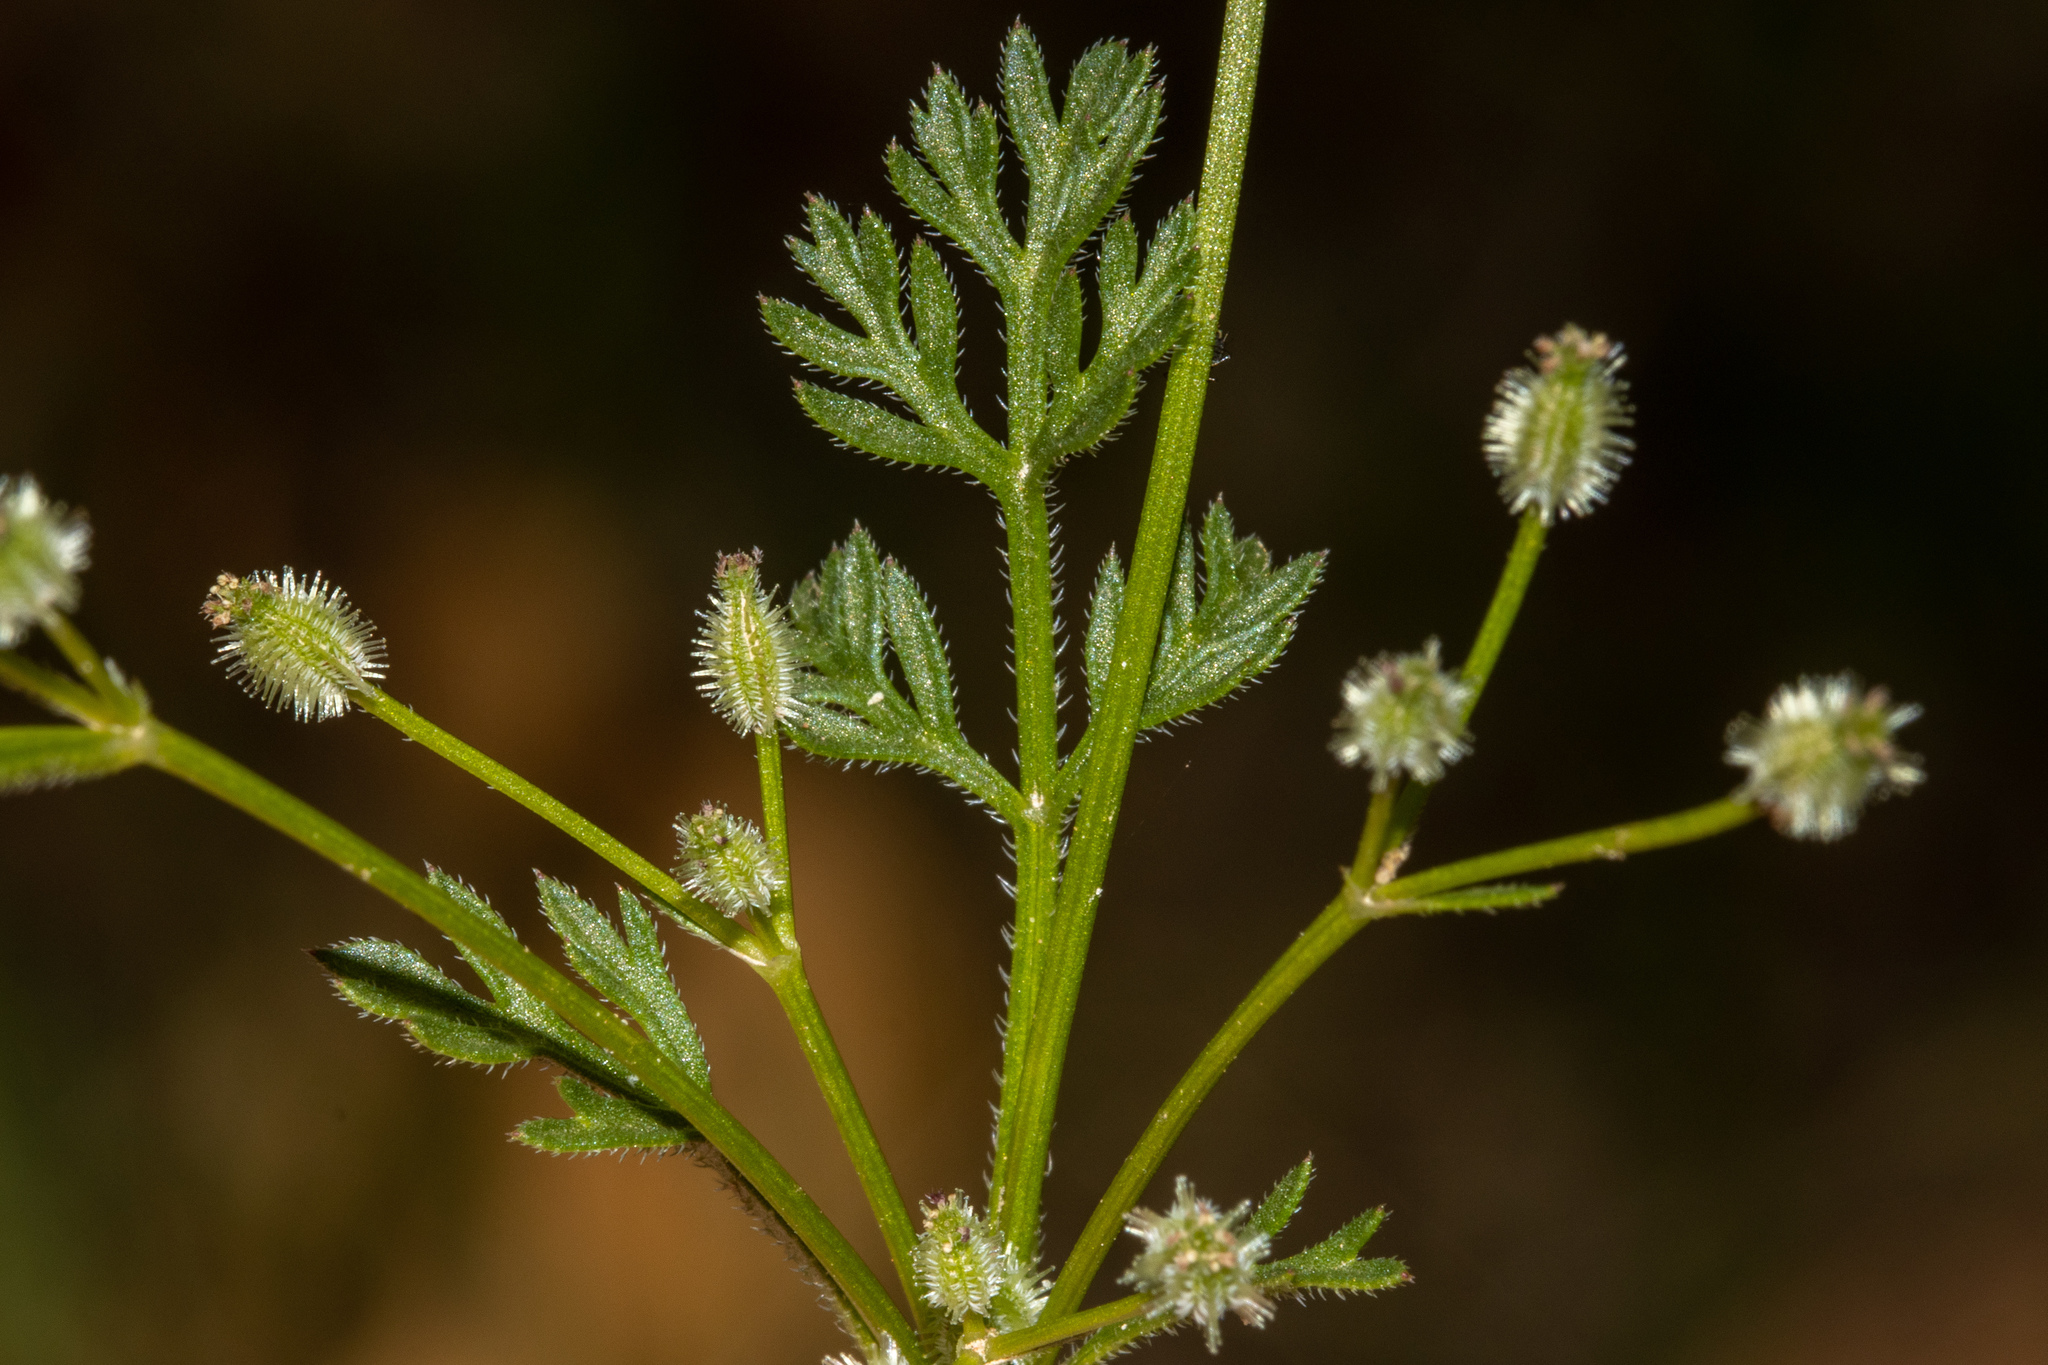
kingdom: Plantae
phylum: Tracheophyta
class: Magnoliopsida
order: Apiales
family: Apiaceae
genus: Daucus
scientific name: Daucus glochidiatus
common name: Australian carrot
